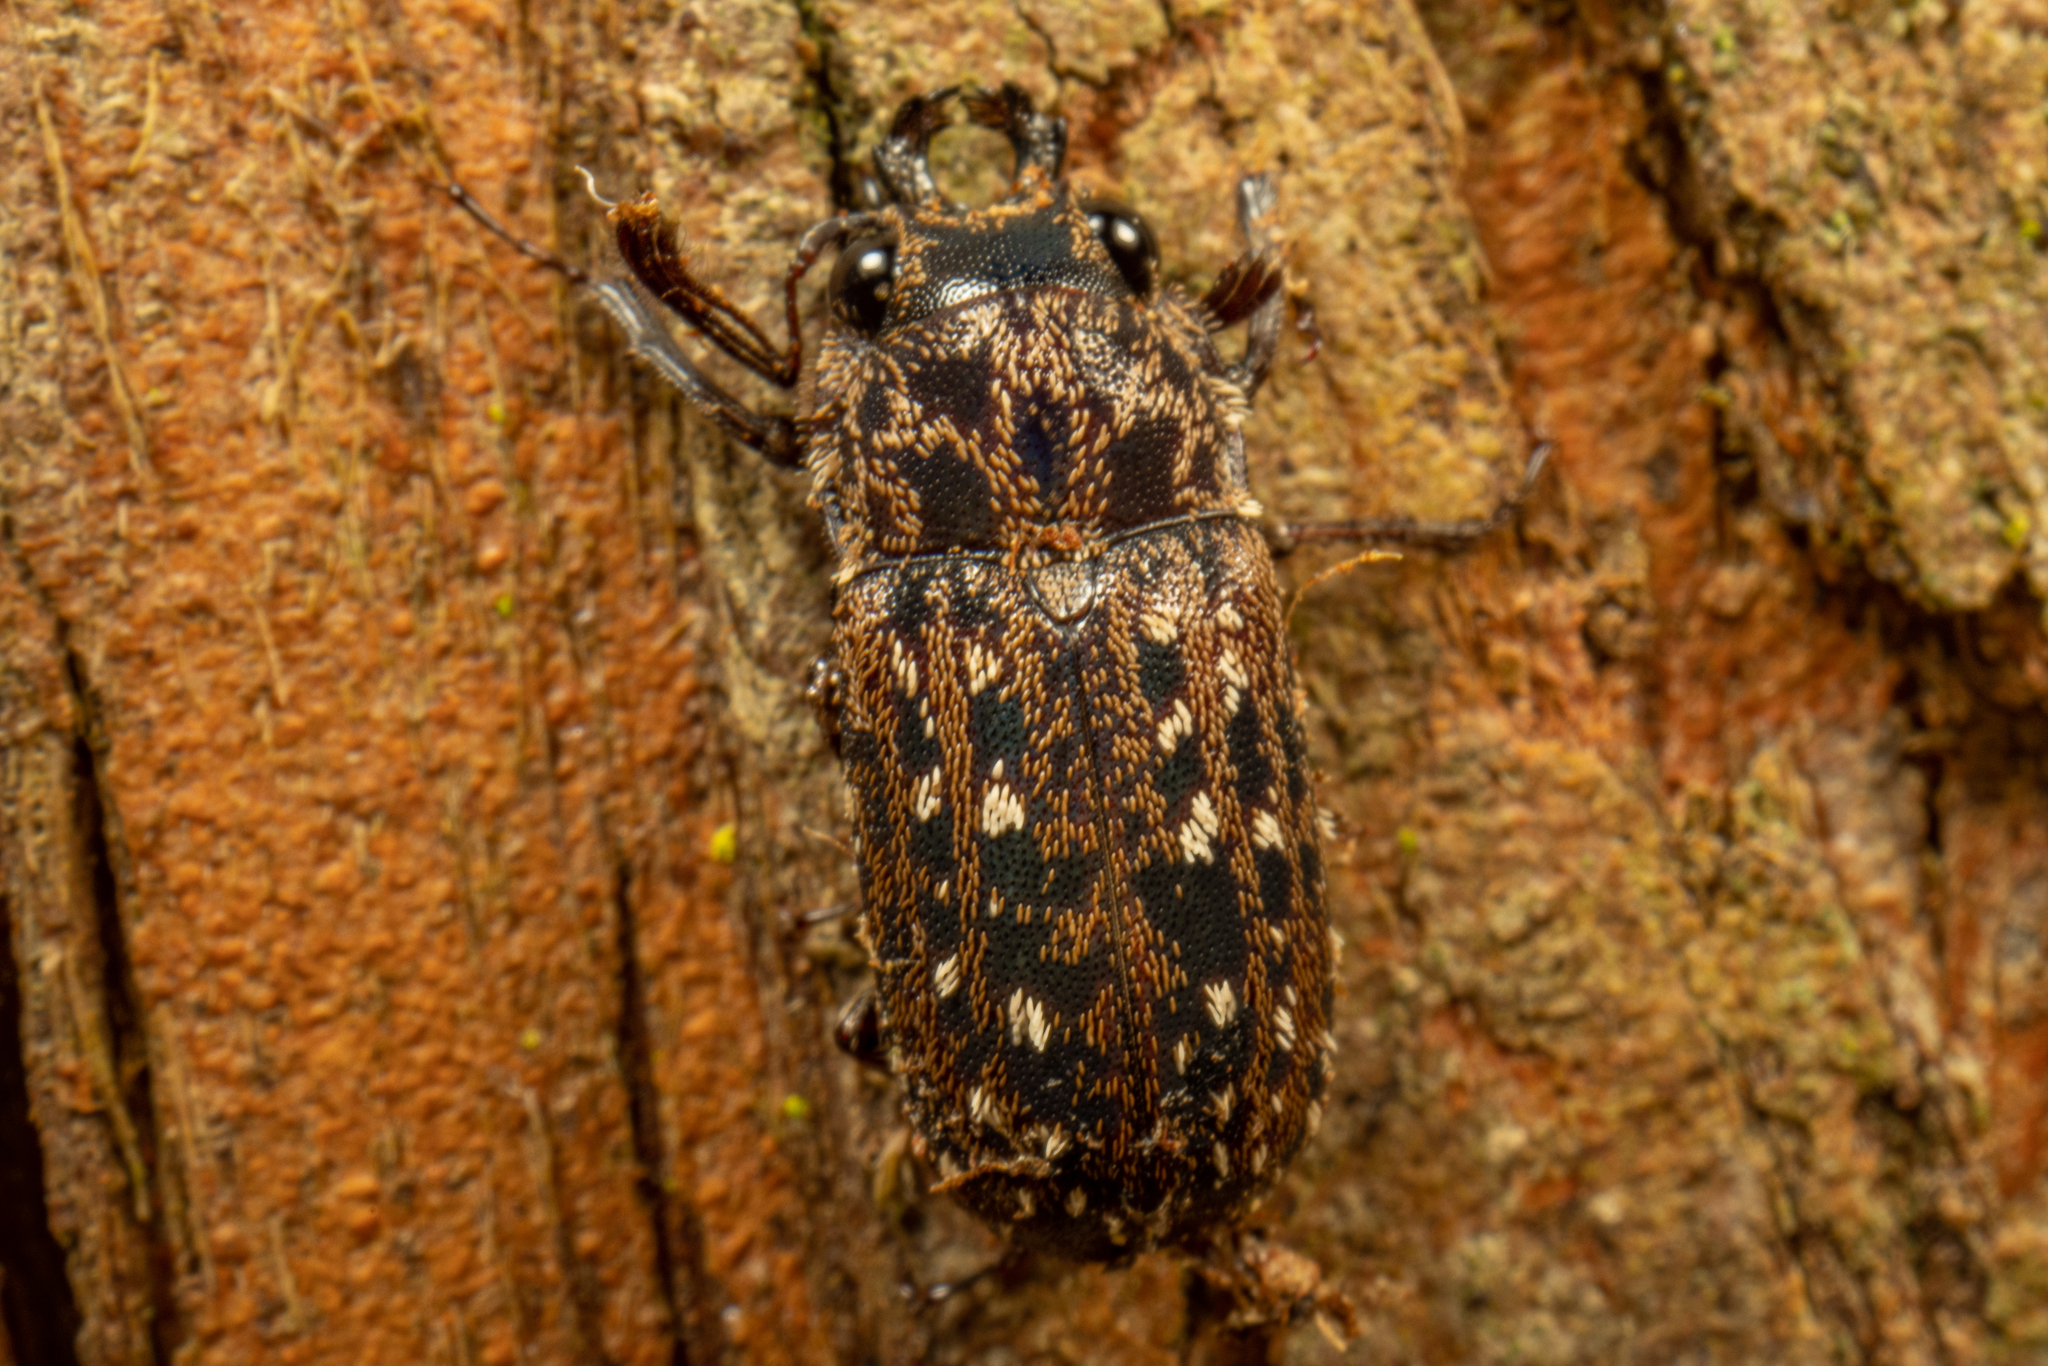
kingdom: Animalia
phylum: Arthropoda
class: Insecta
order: Coleoptera
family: Lucanidae
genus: Mitophyllus
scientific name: Mitophyllus arcuatus
